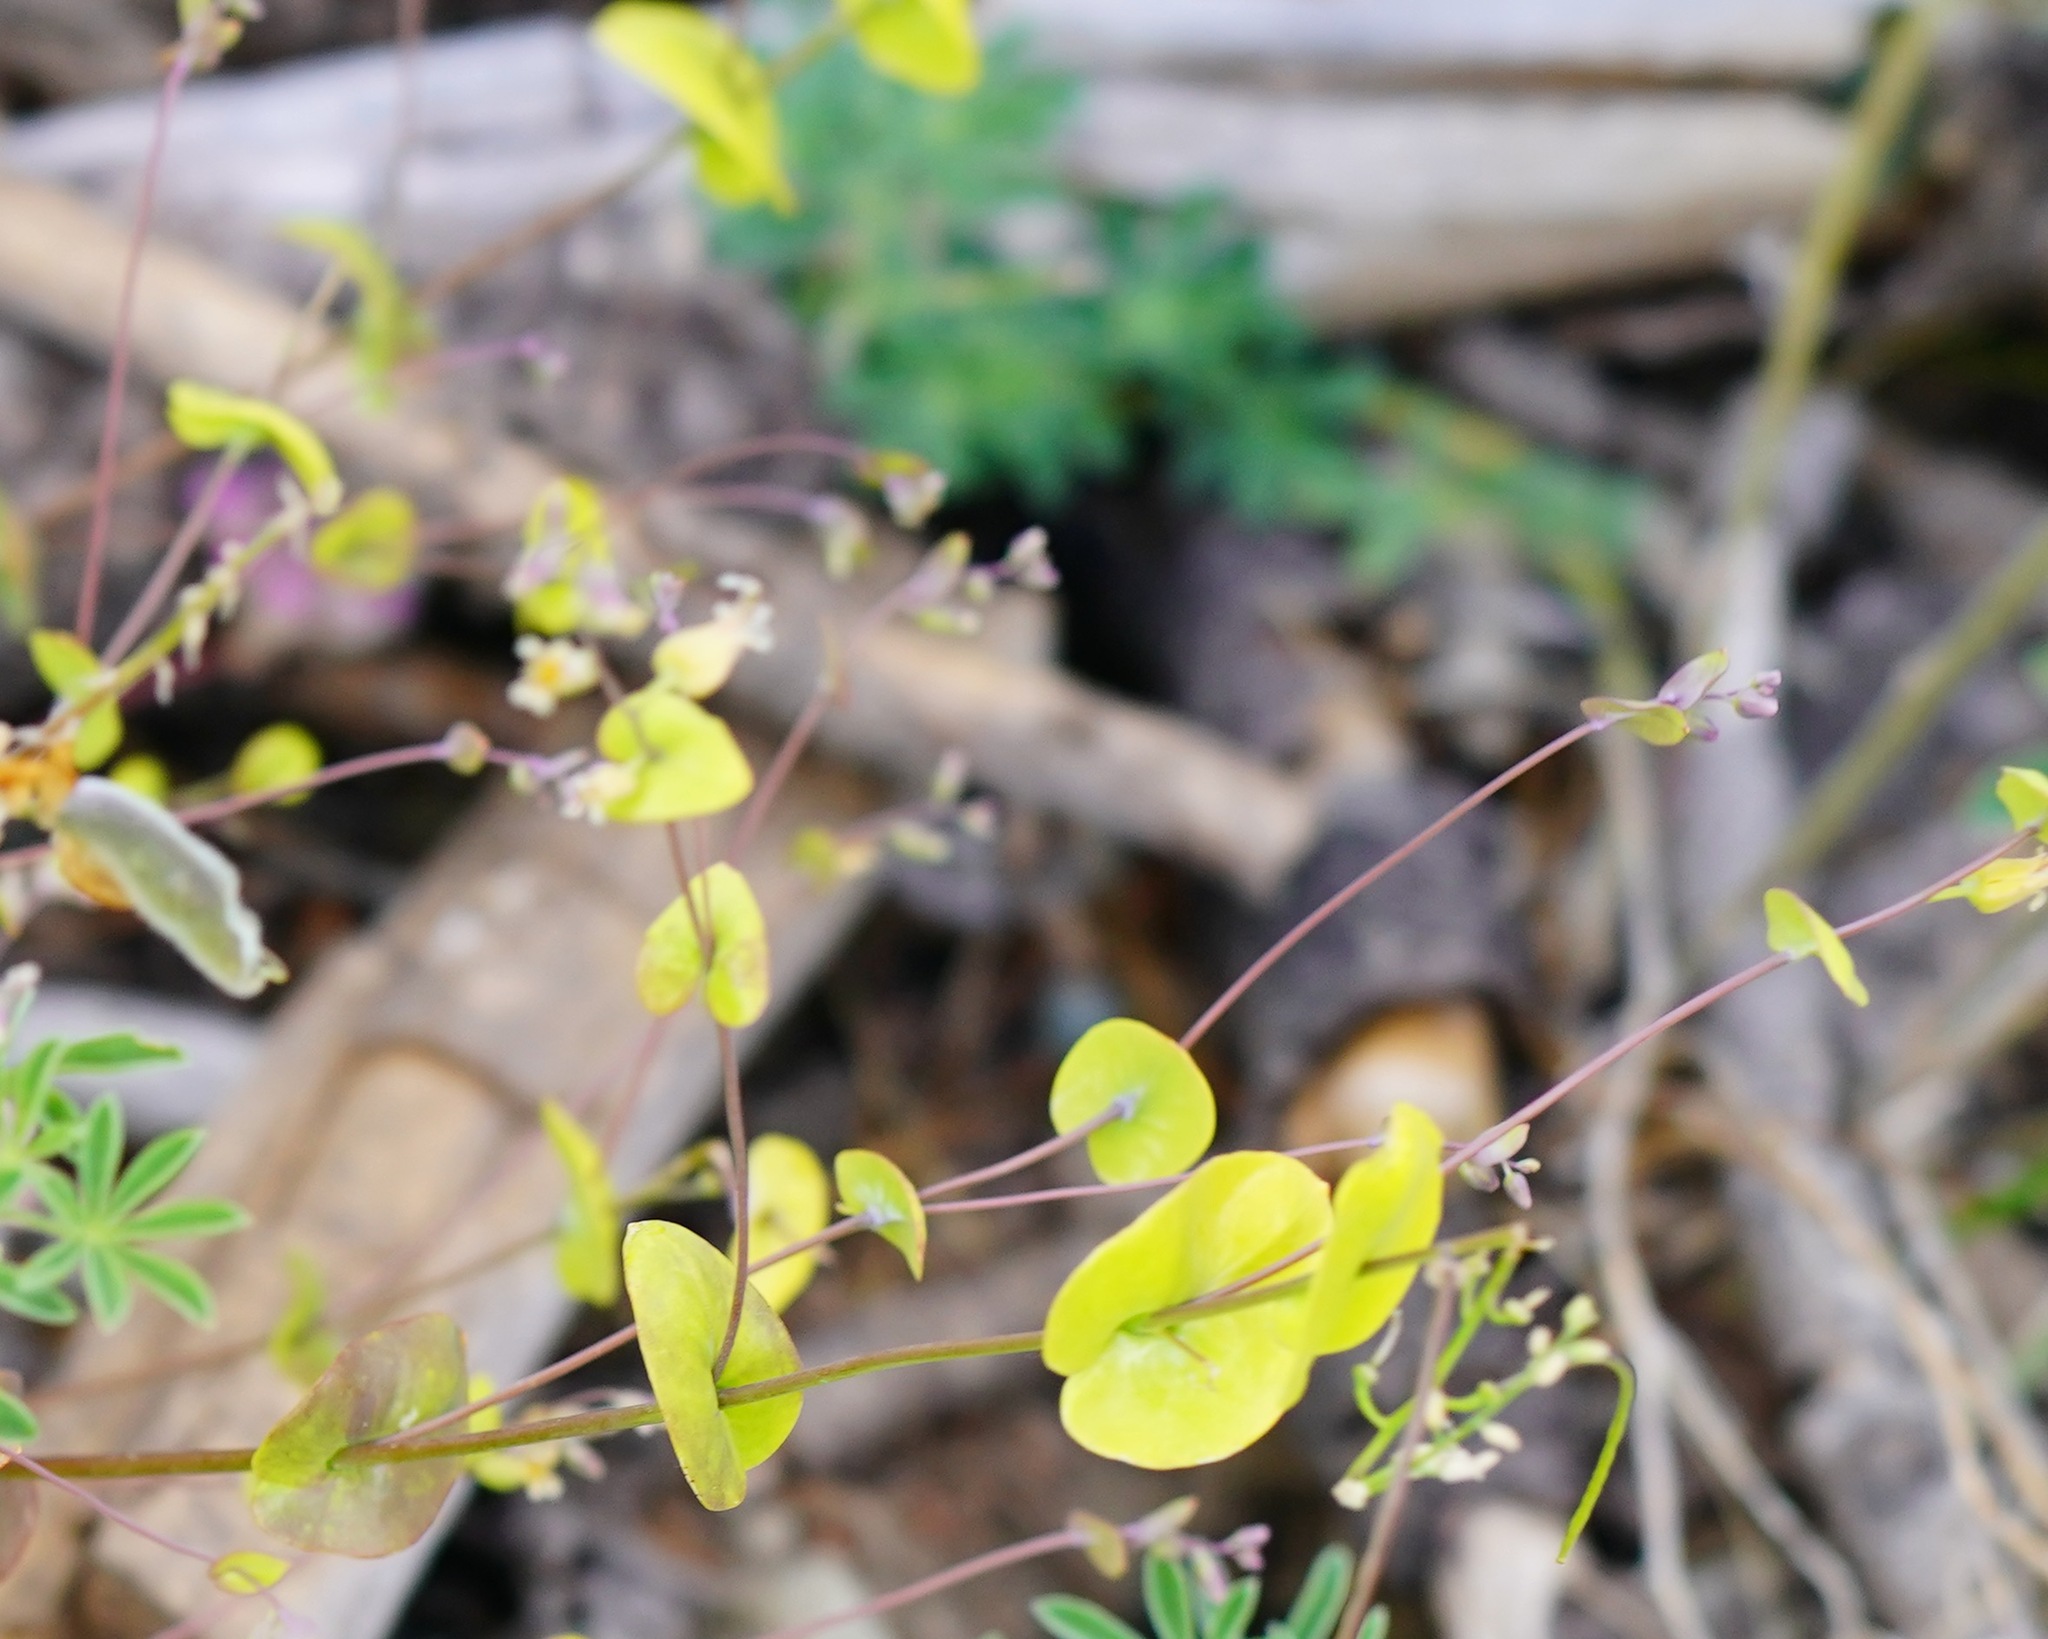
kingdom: Plantae
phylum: Tracheophyta
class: Magnoliopsida
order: Brassicales
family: Brassicaceae
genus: Streptanthus
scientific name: Streptanthus tortuosus
